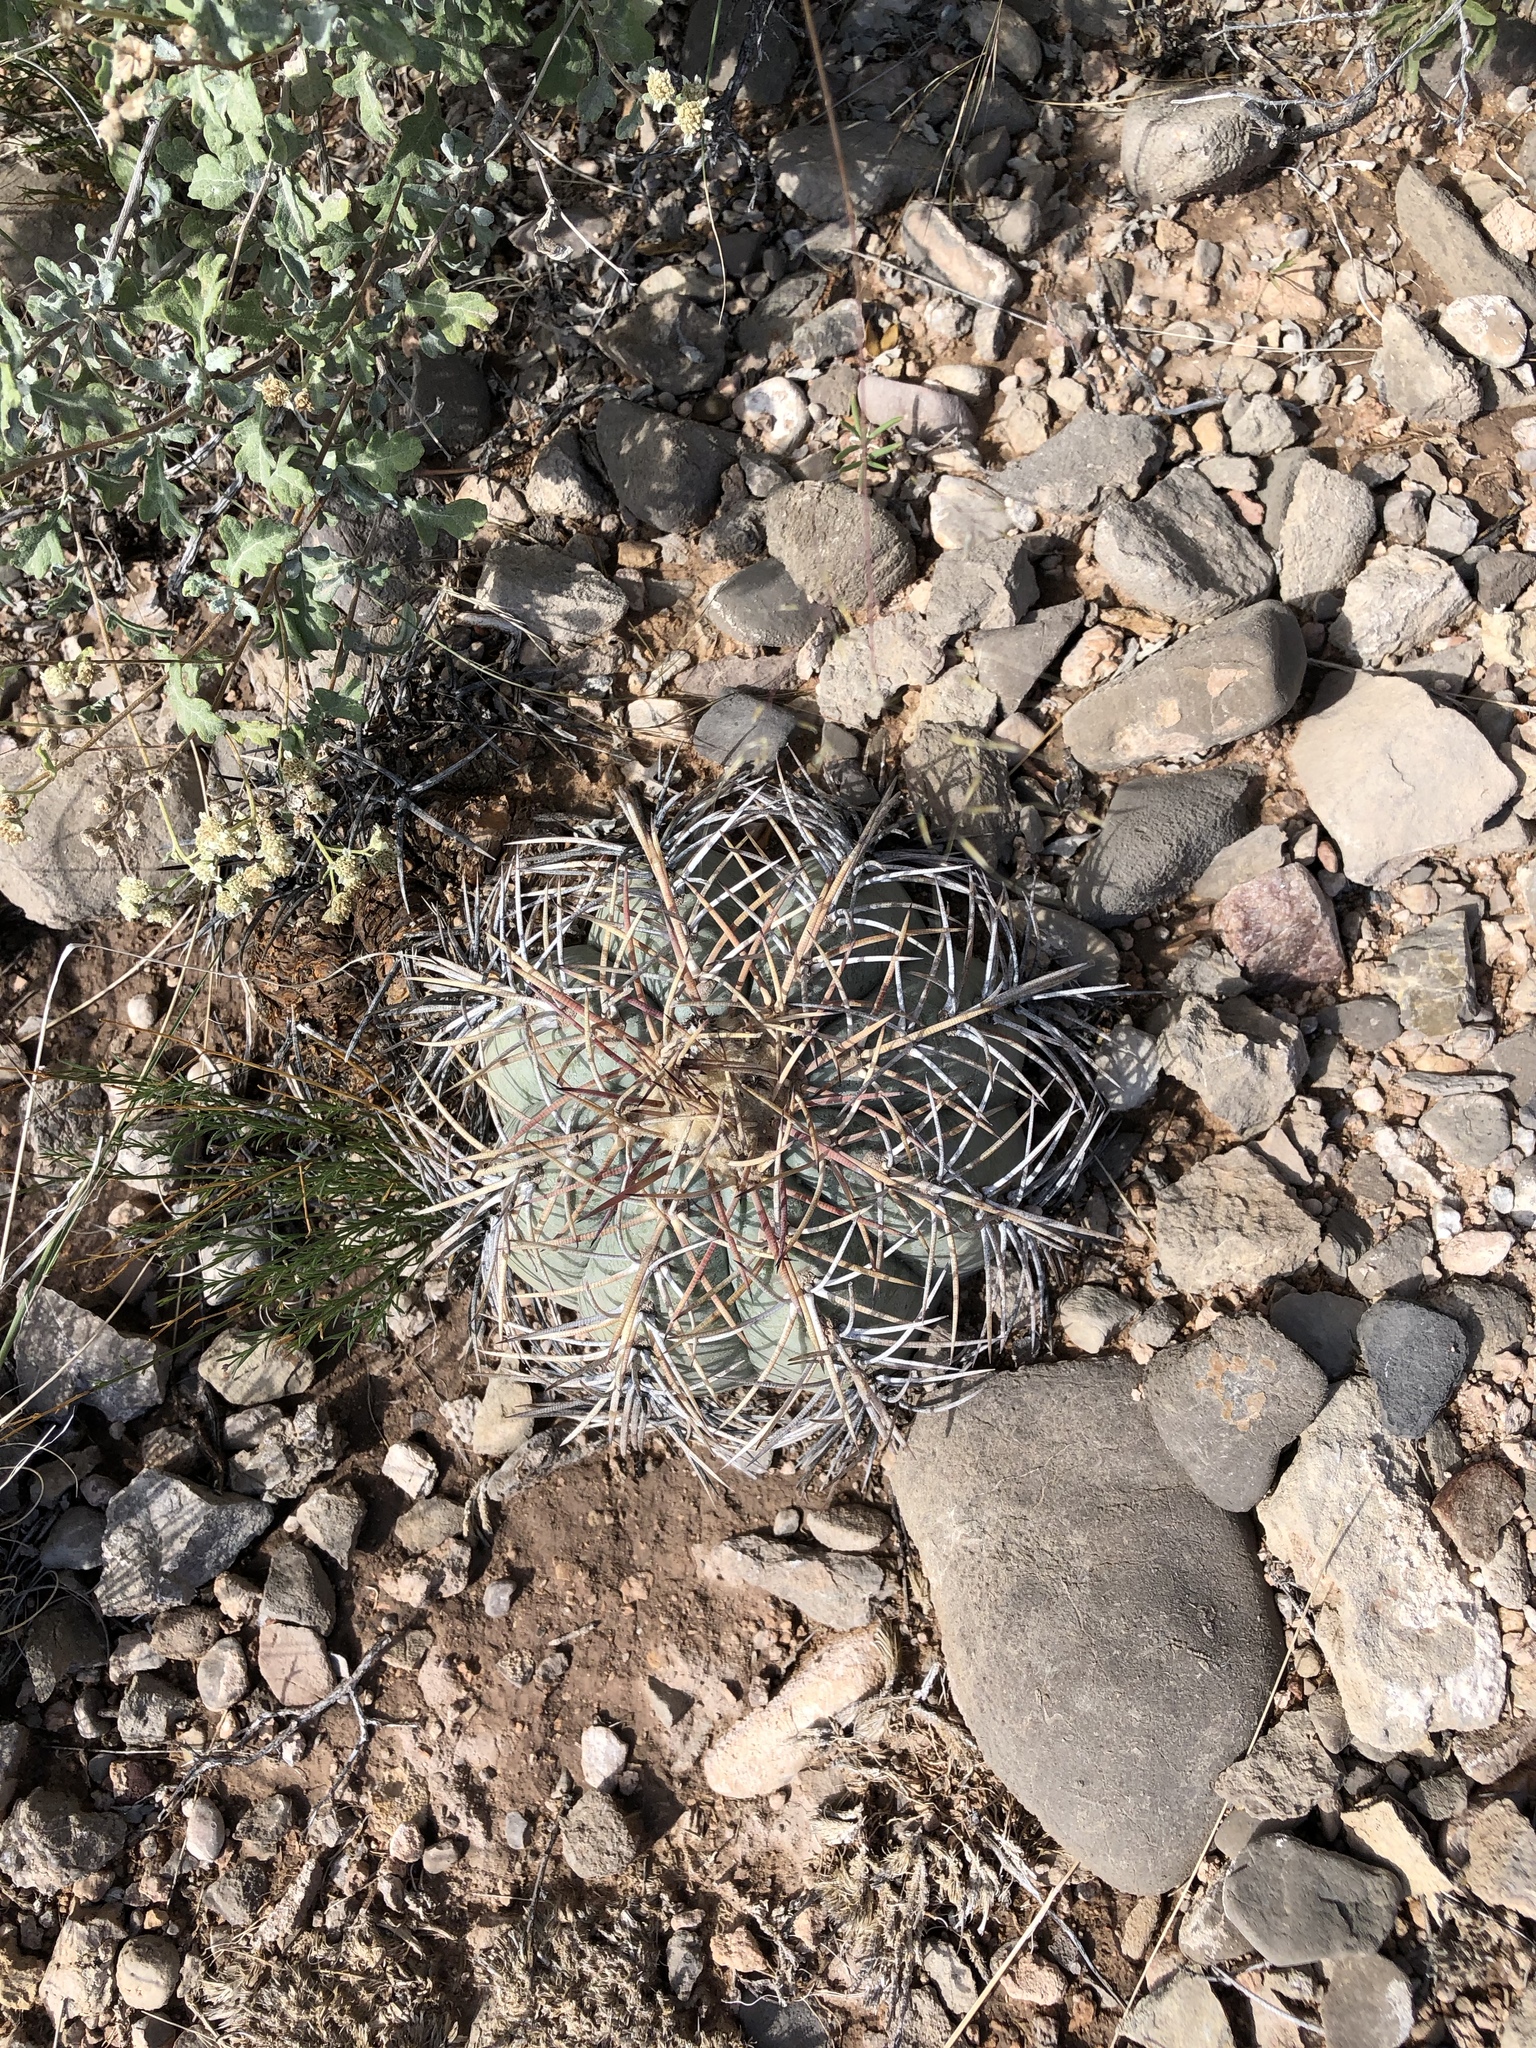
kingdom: Plantae
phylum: Tracheophyta
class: Magnoliopsida
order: Caryophyllales
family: Cactaceae
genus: Echinocactus
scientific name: Echinocactus horizonthalonius
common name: Devilshead
